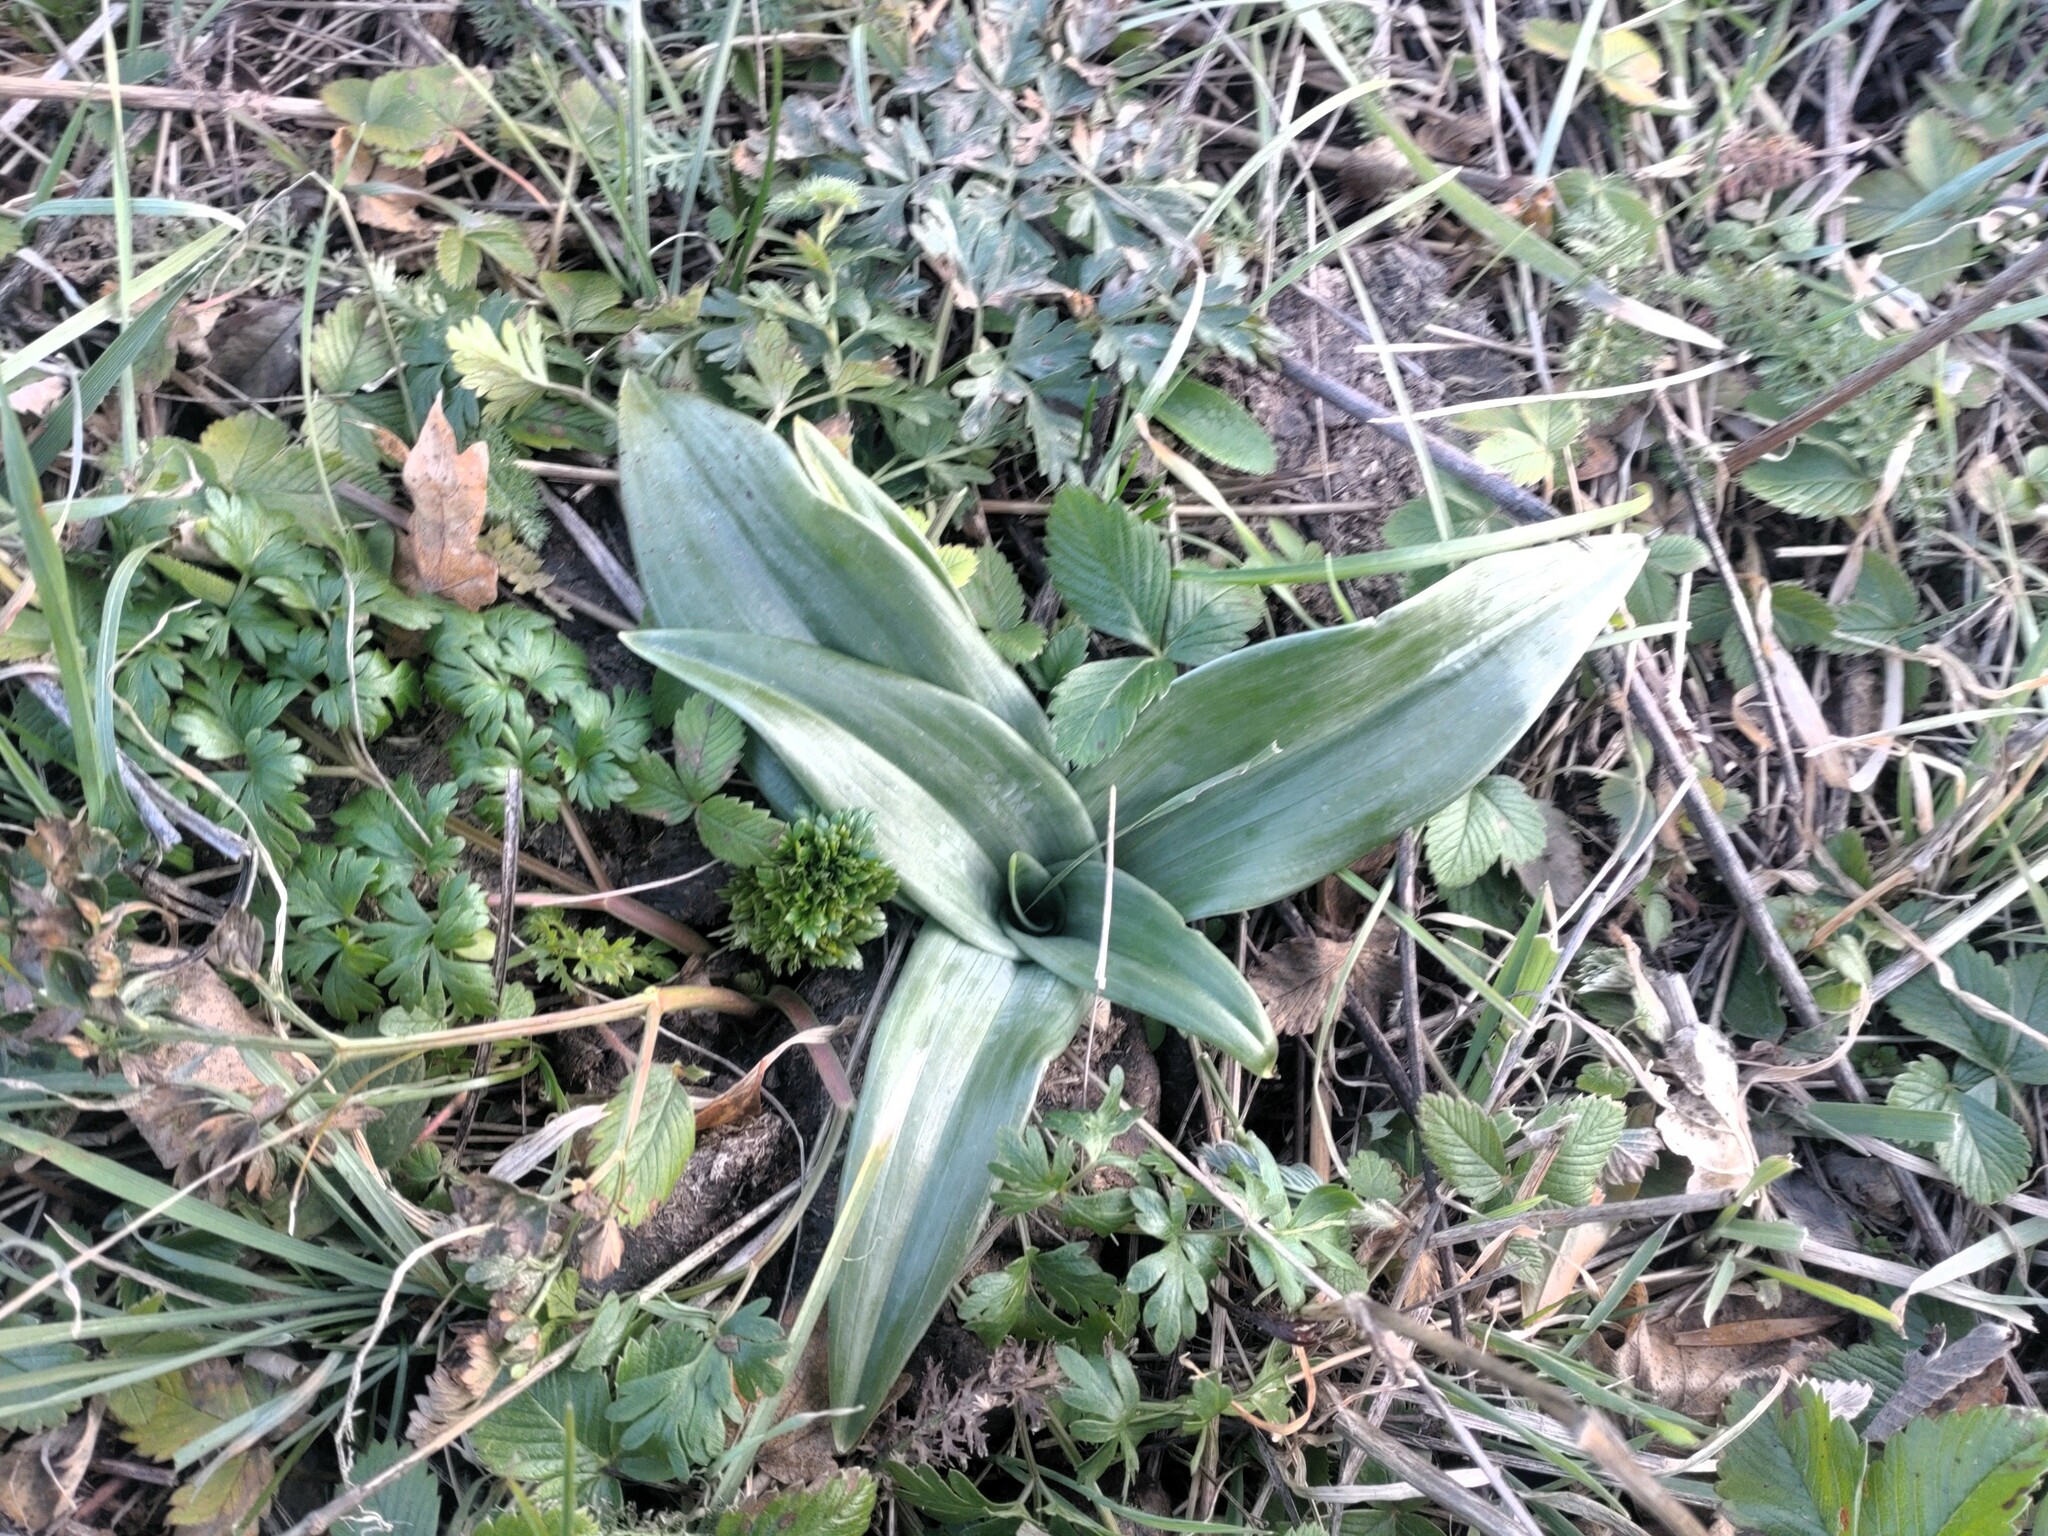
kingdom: Plantae
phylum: Tracheophyta
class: Liliopsida
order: Asparagales
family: Orchidaceae
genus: Himantoglossum
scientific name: Himantoglossum adriaticum
